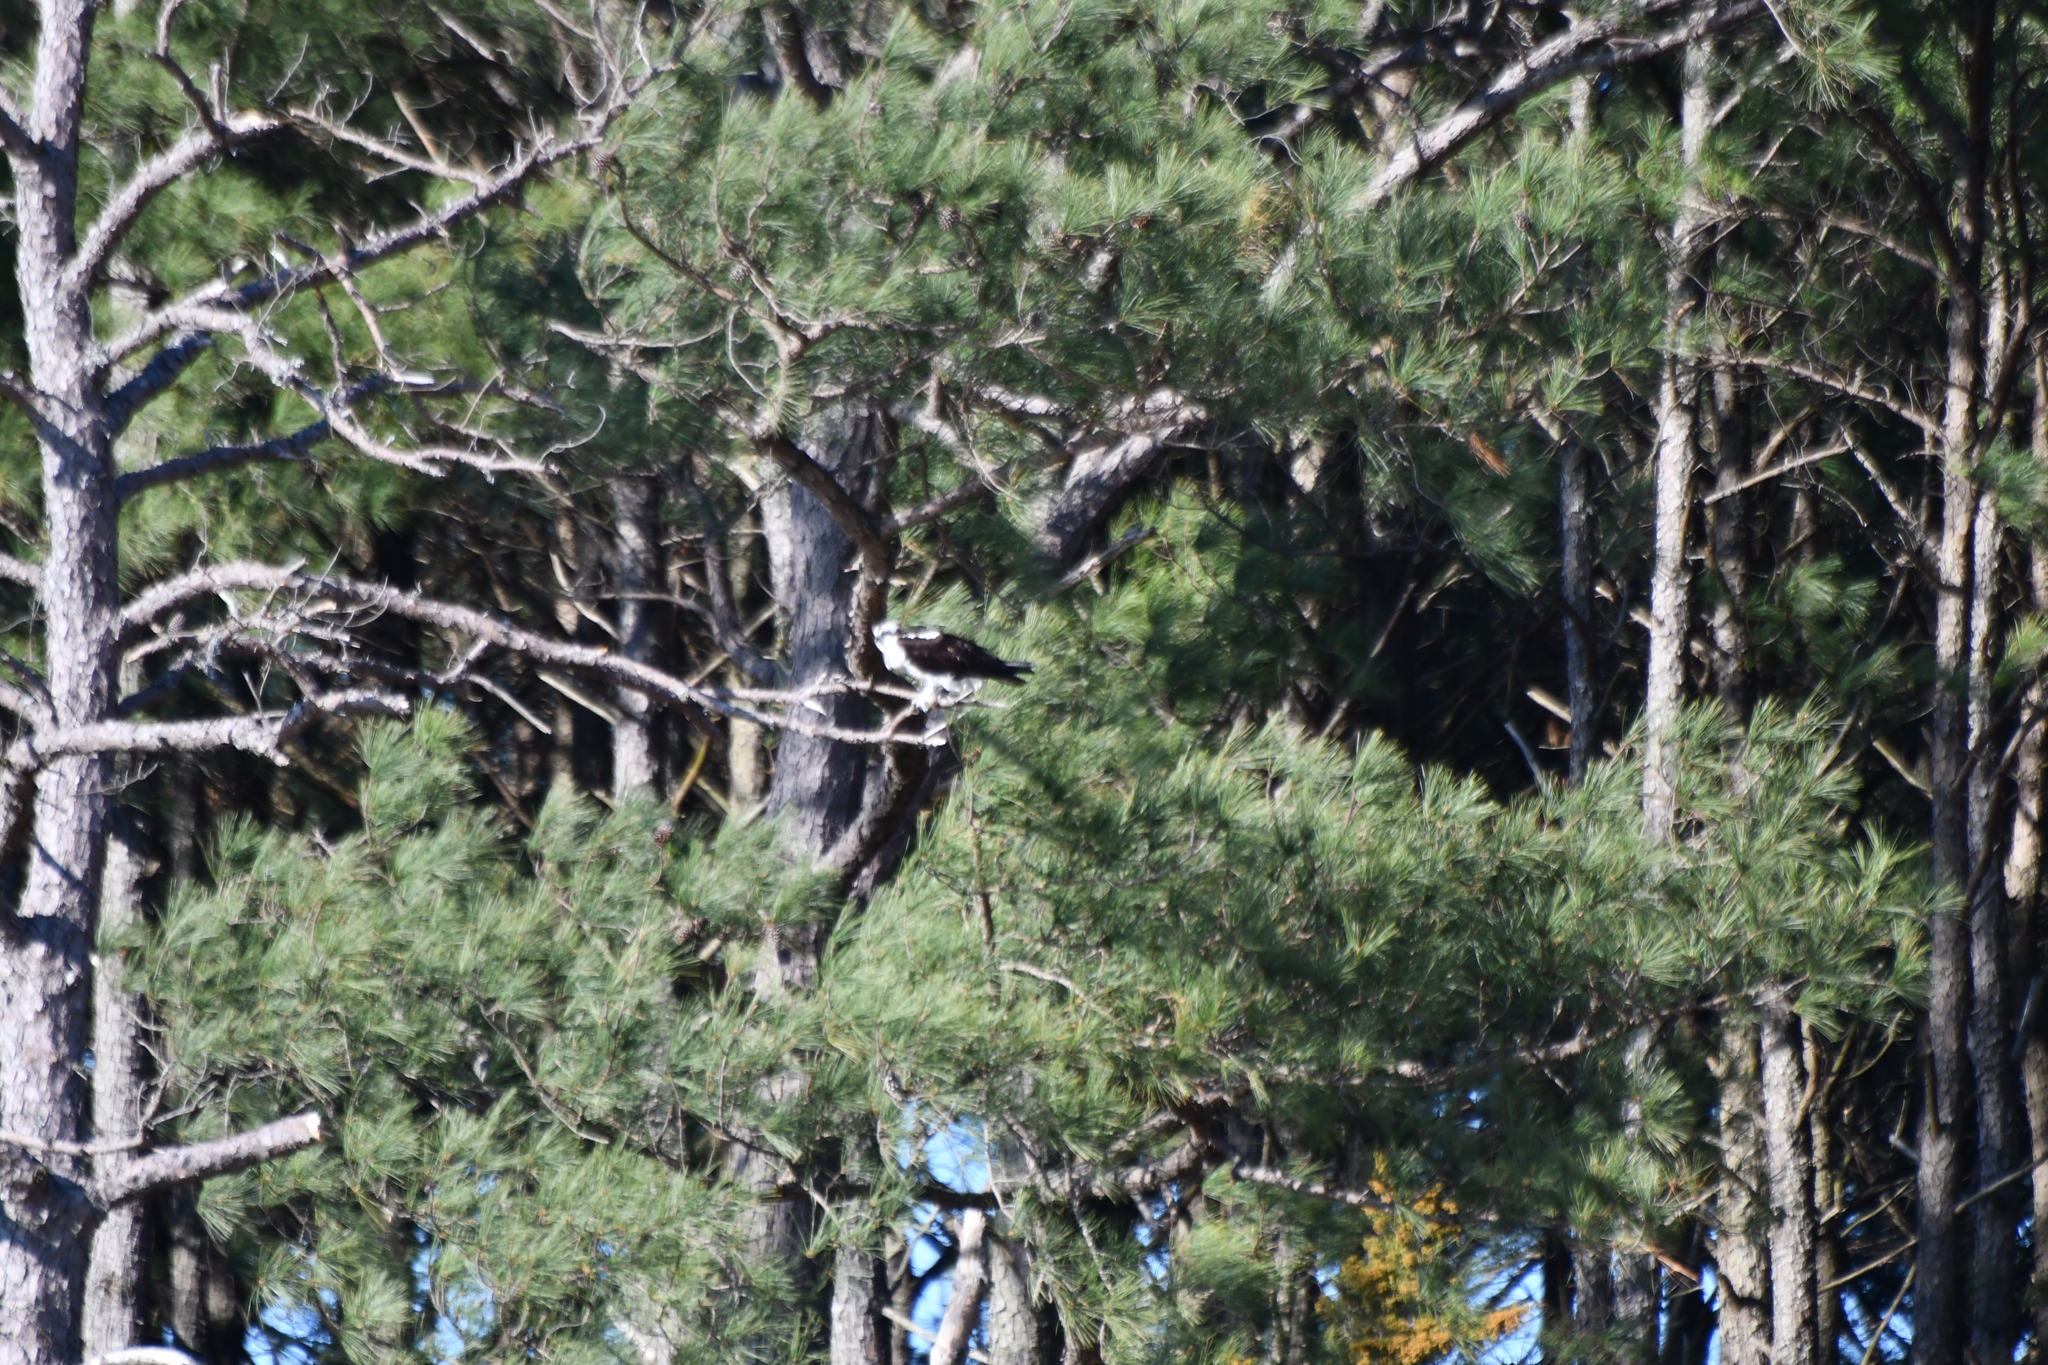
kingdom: Animalia
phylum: Chordata
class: Aves
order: Accipitriformes
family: Pandionidae
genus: Pandion
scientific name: Pandion haliaetus
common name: Osprey
